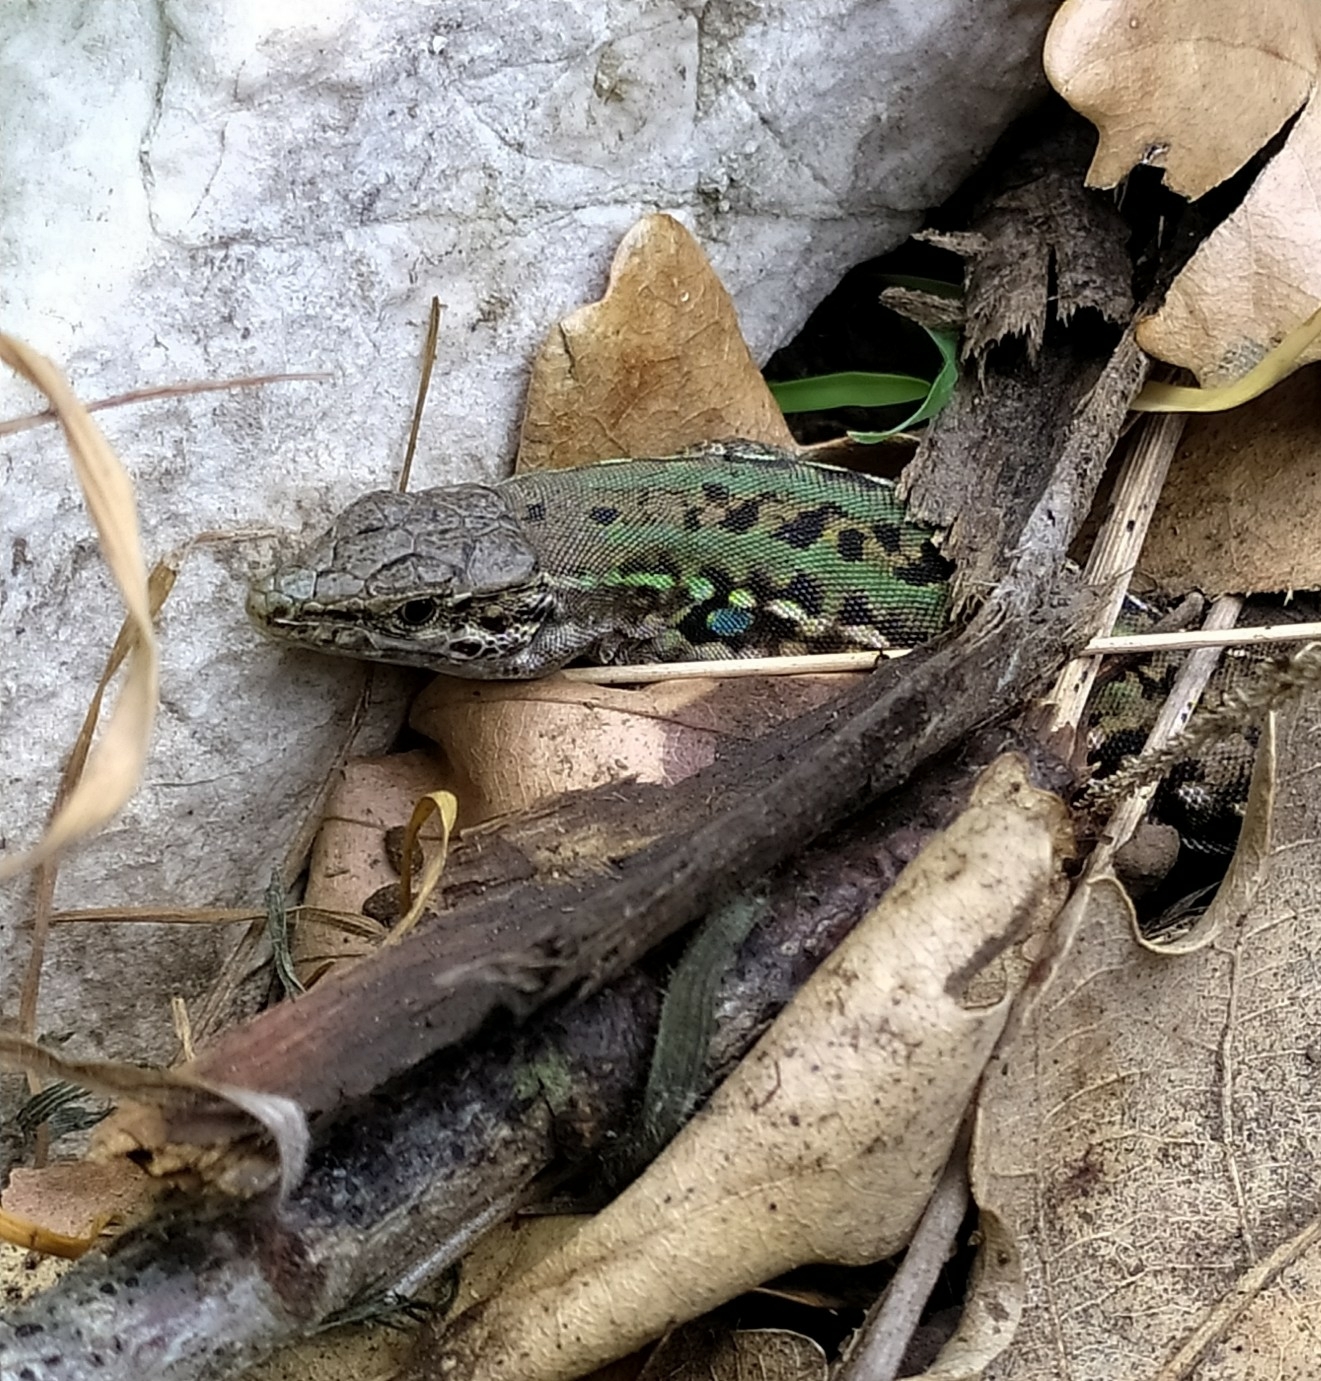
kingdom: Animalia
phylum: Chordata
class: Squamata
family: Lacertidae
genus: Podarcis
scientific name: Podarcis siculus
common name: Italian wall lizard
